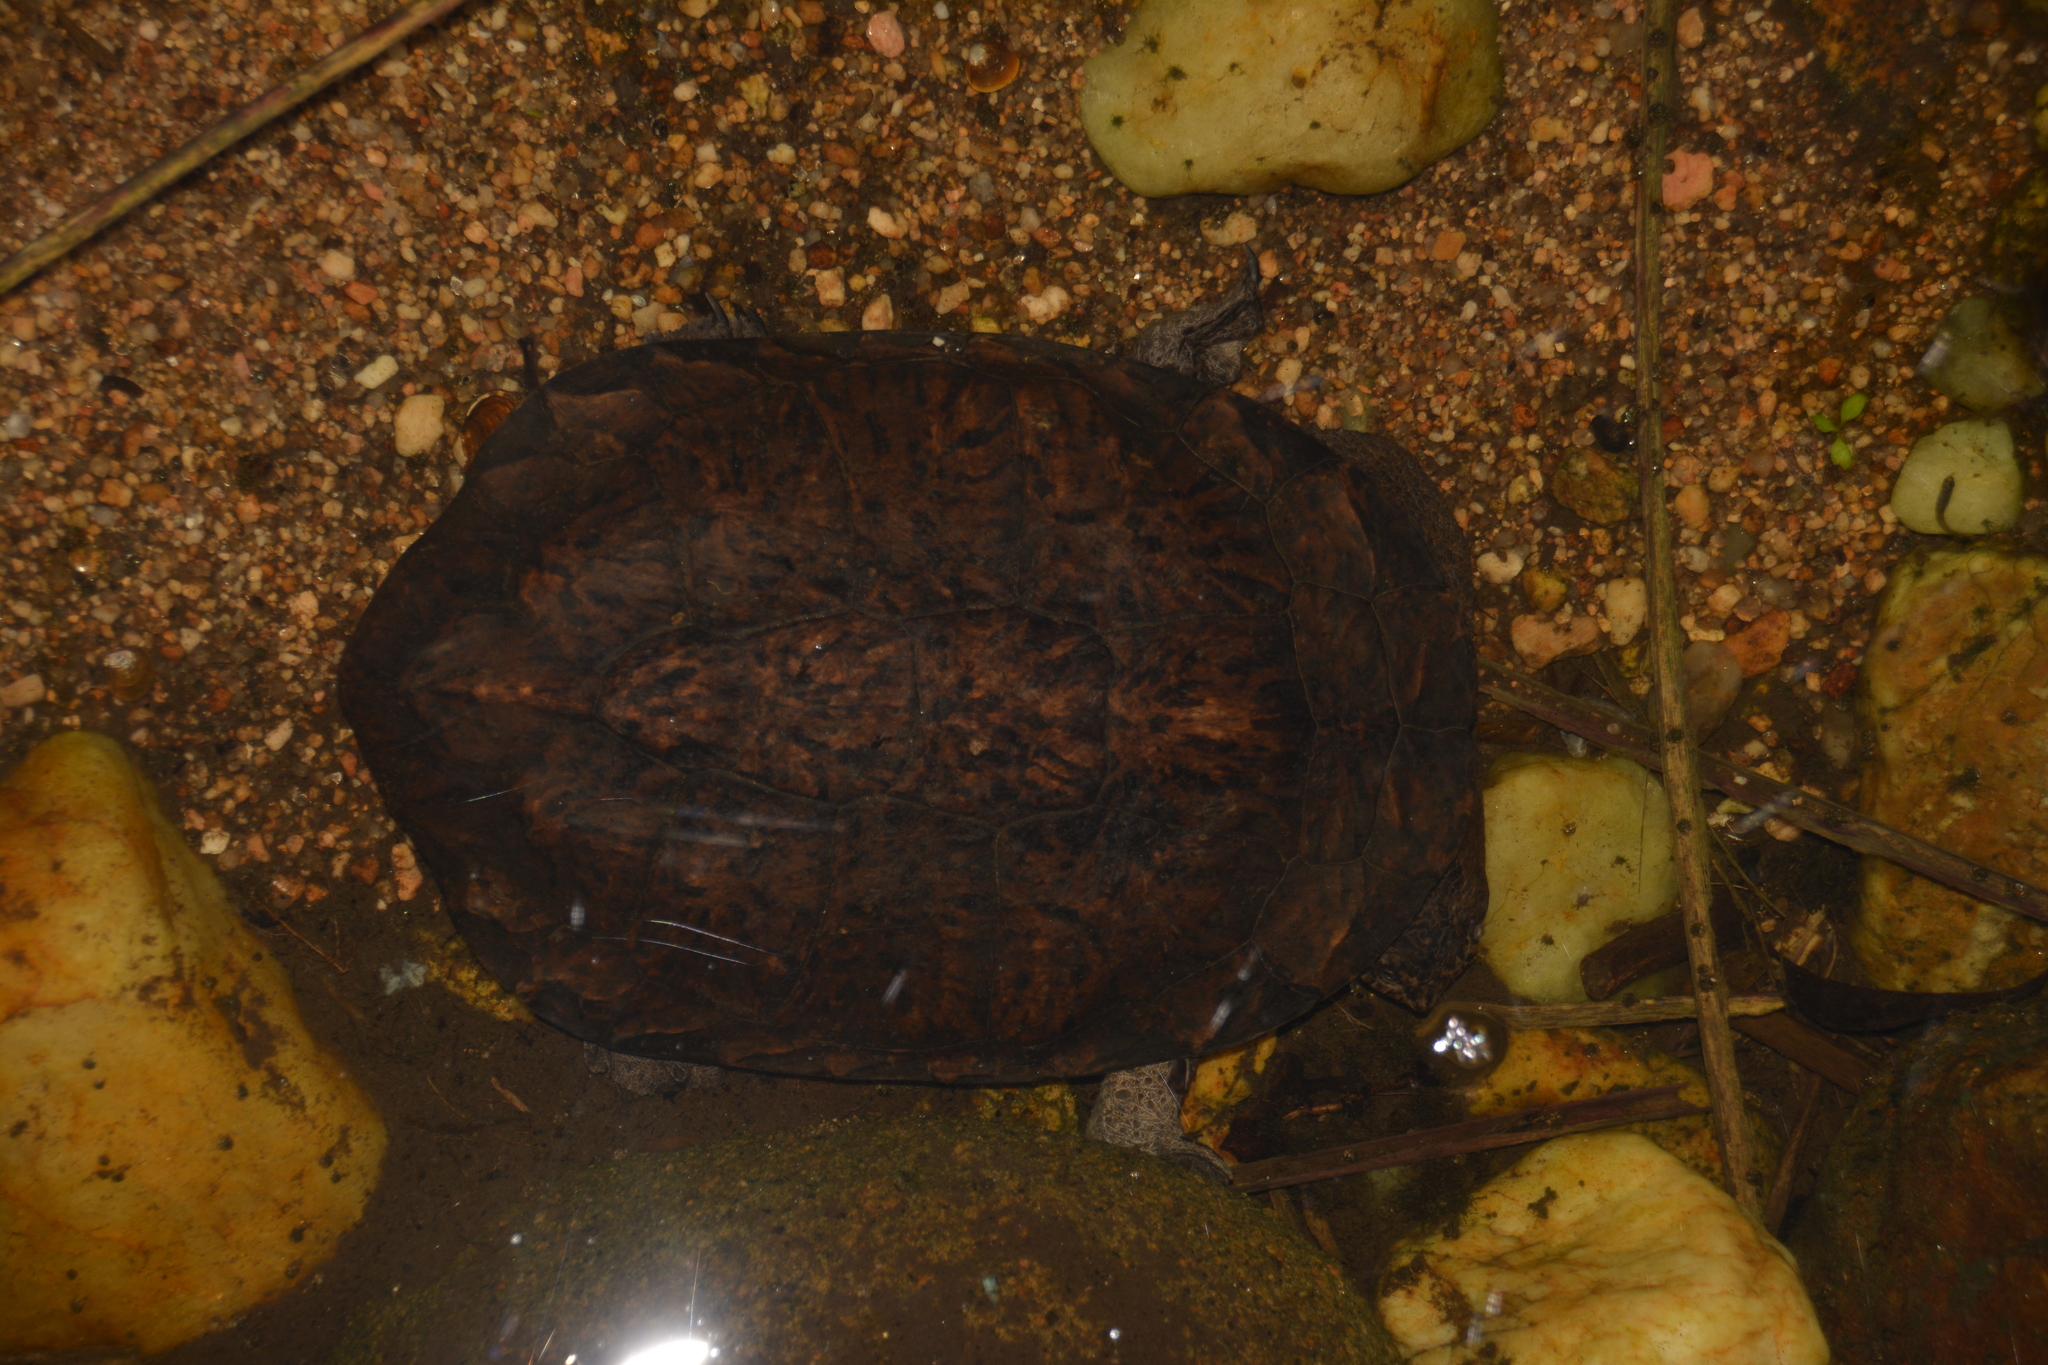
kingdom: Animalia
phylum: Chordata
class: Testudines
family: Chelidae
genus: Hydromedusa
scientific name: Hydromedusa tectifera
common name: Argentine snake-necked turtle
